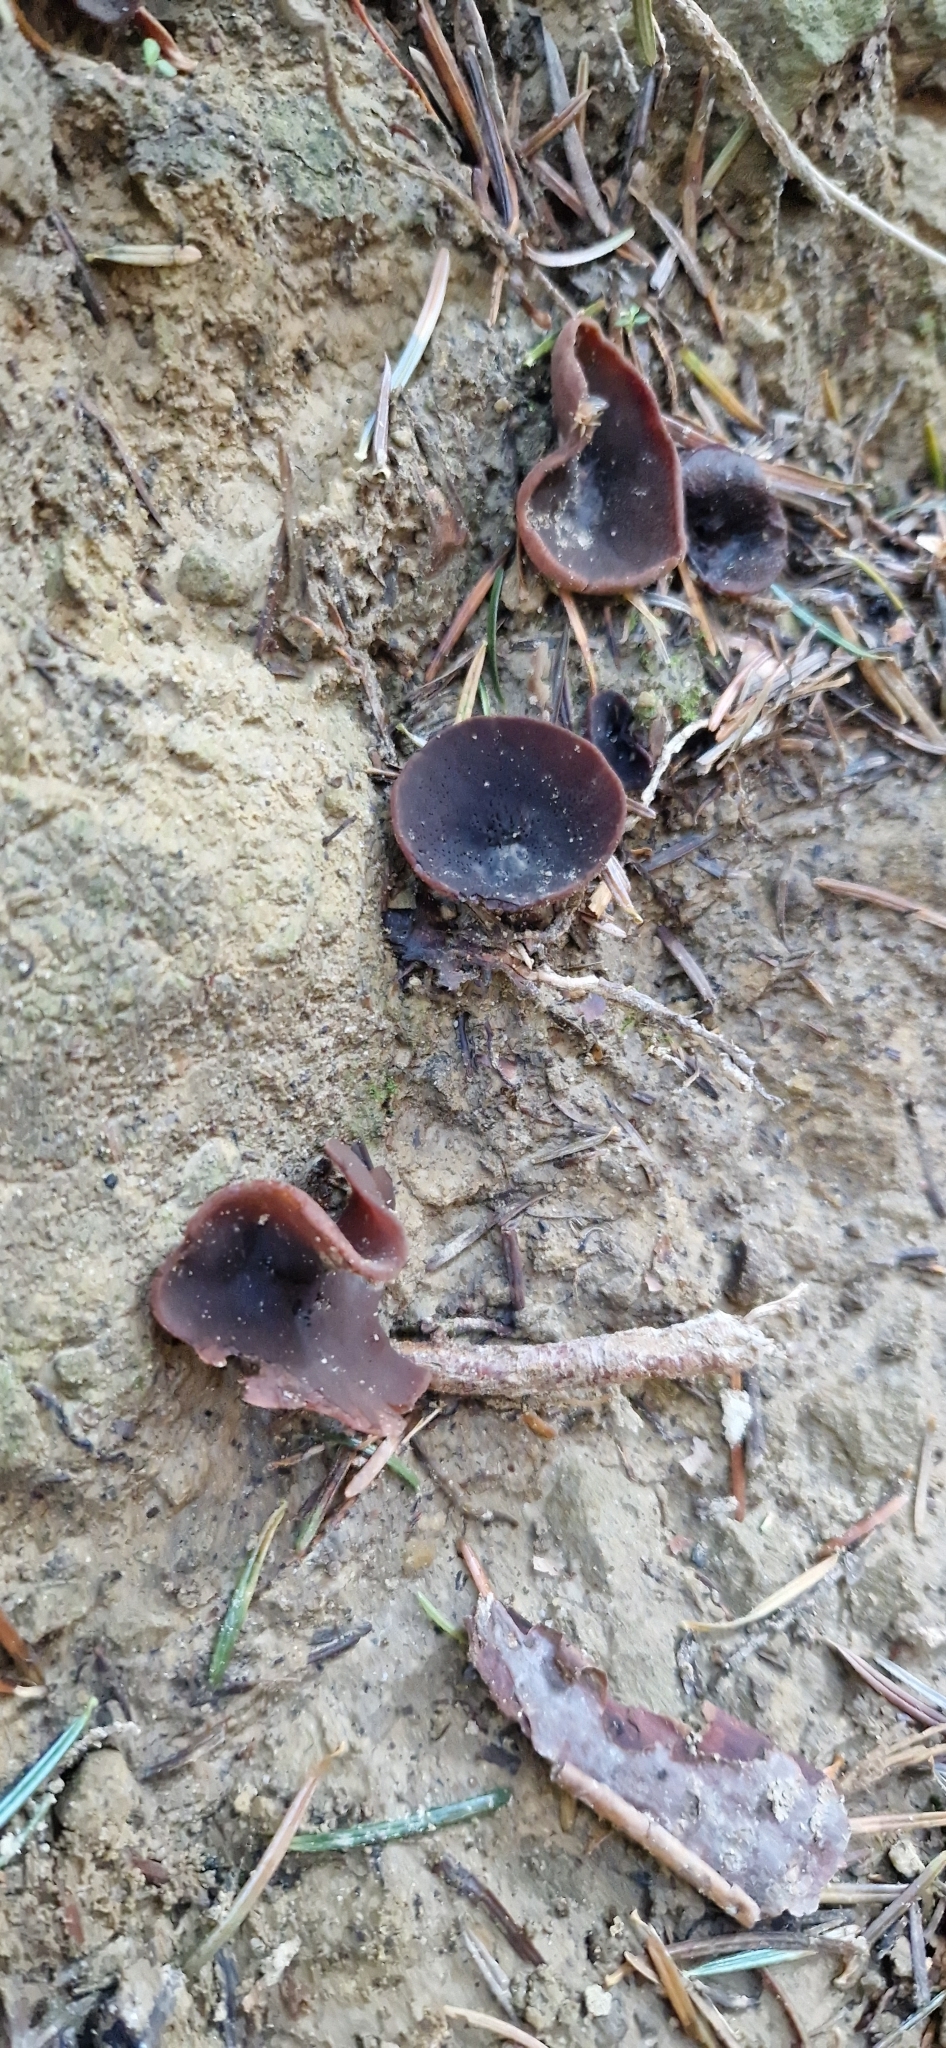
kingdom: Fungi
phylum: Ascomycota
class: Pezizomycetes
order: Pezizales
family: Pezizaceae
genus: Peziza
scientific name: Peziza saniosa
